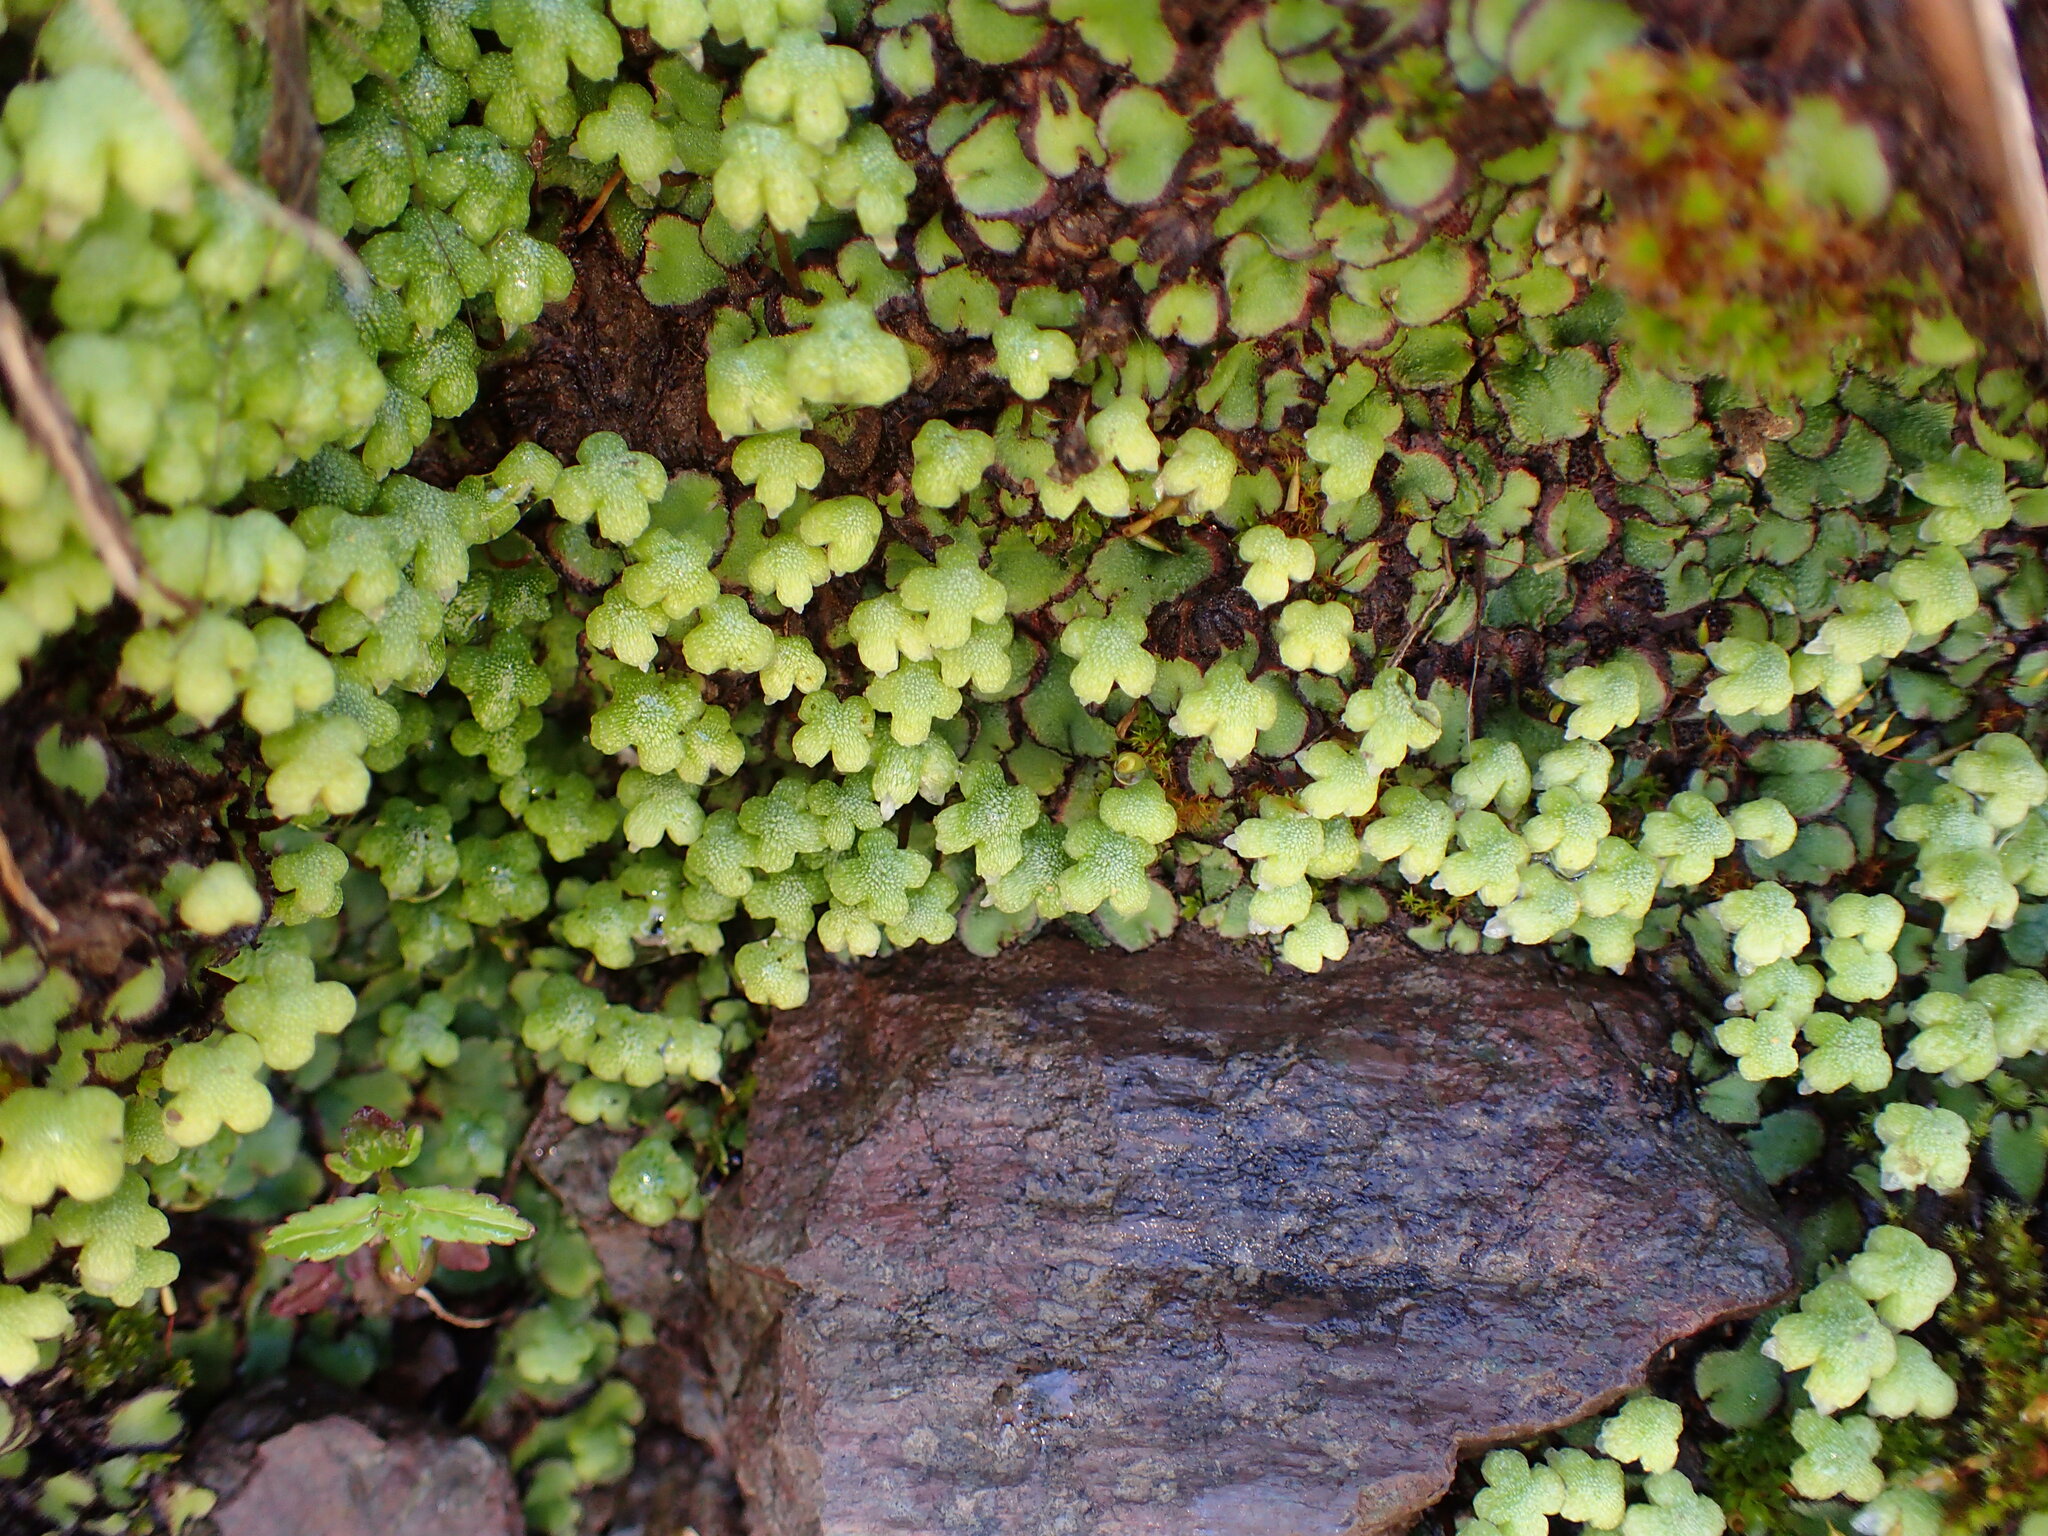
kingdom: Plantae
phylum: Marchantiophyta
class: Marchantiopsida
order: Marchantiales
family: Aytoniaceae
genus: Asterella
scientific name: Asterella californica
